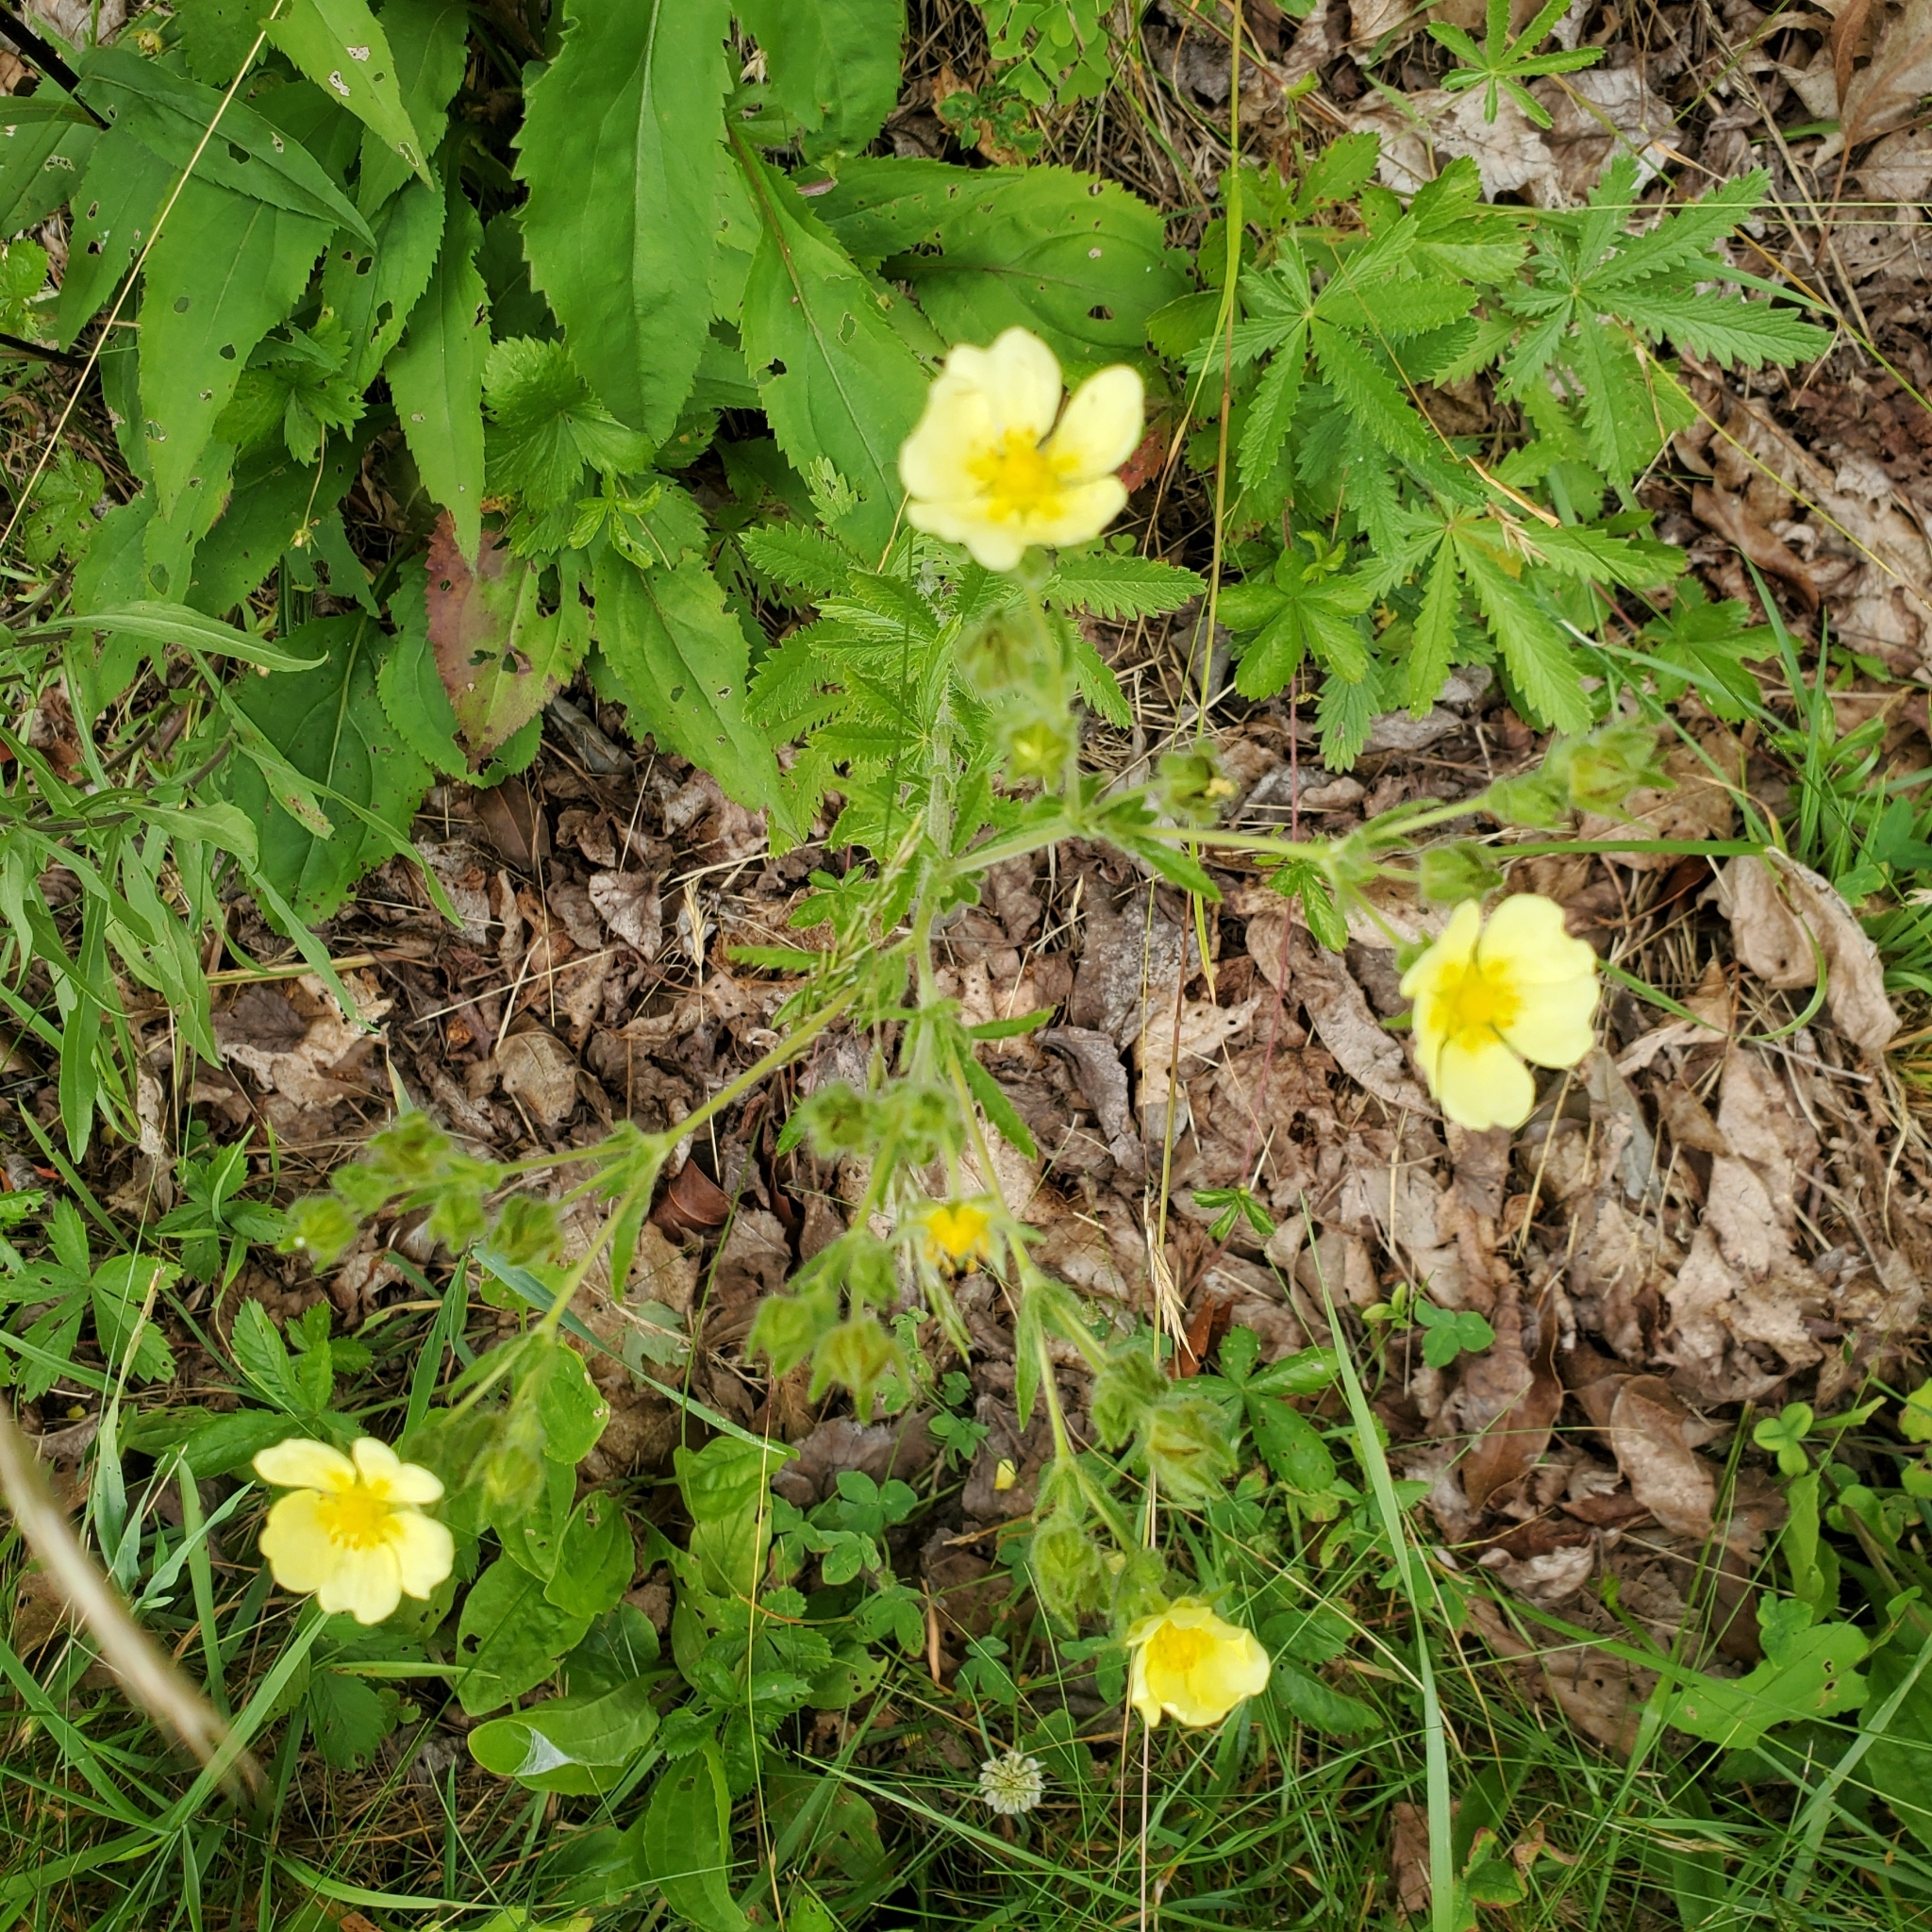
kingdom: Plantae
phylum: Tracheophyta
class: Magnoliopsida
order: Rosales
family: Rosaceae
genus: Potentilla
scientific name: Potentilla recta
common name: Sulphur cinquefoil
